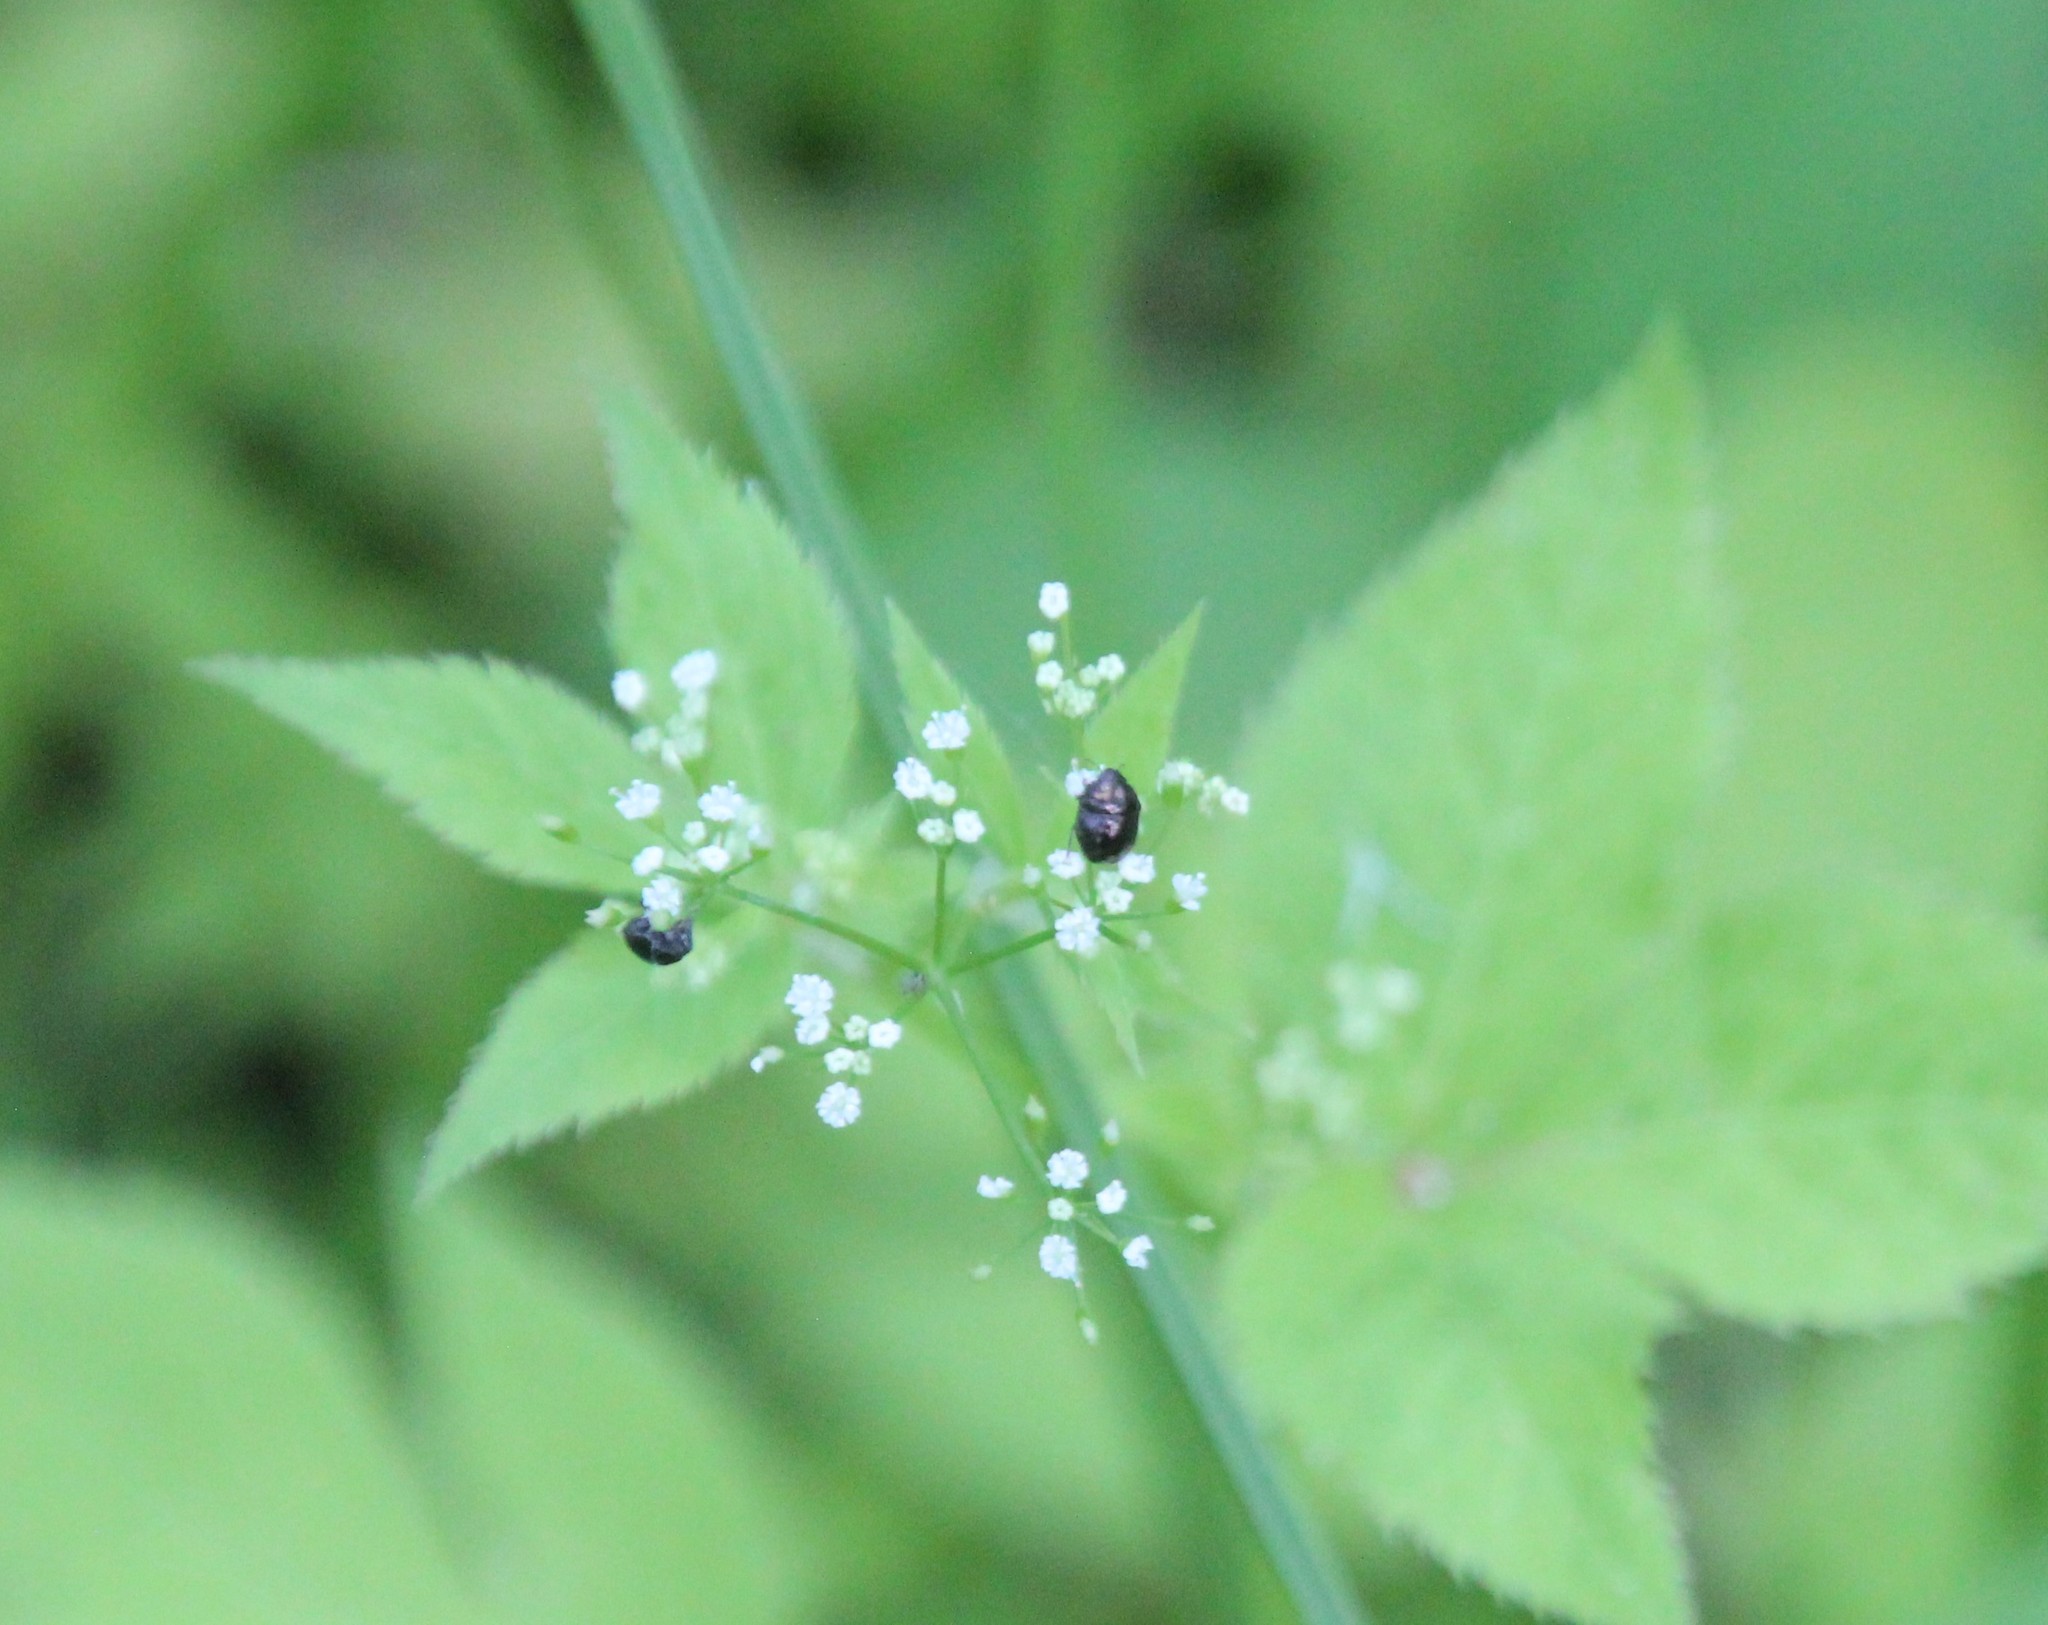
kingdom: Plantae
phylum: Tracheophyta
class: Magnoliopsida
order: Apiales
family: Apiaceae
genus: Cryptotaenia
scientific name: Cryptotaenia canadensis
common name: Honewort
